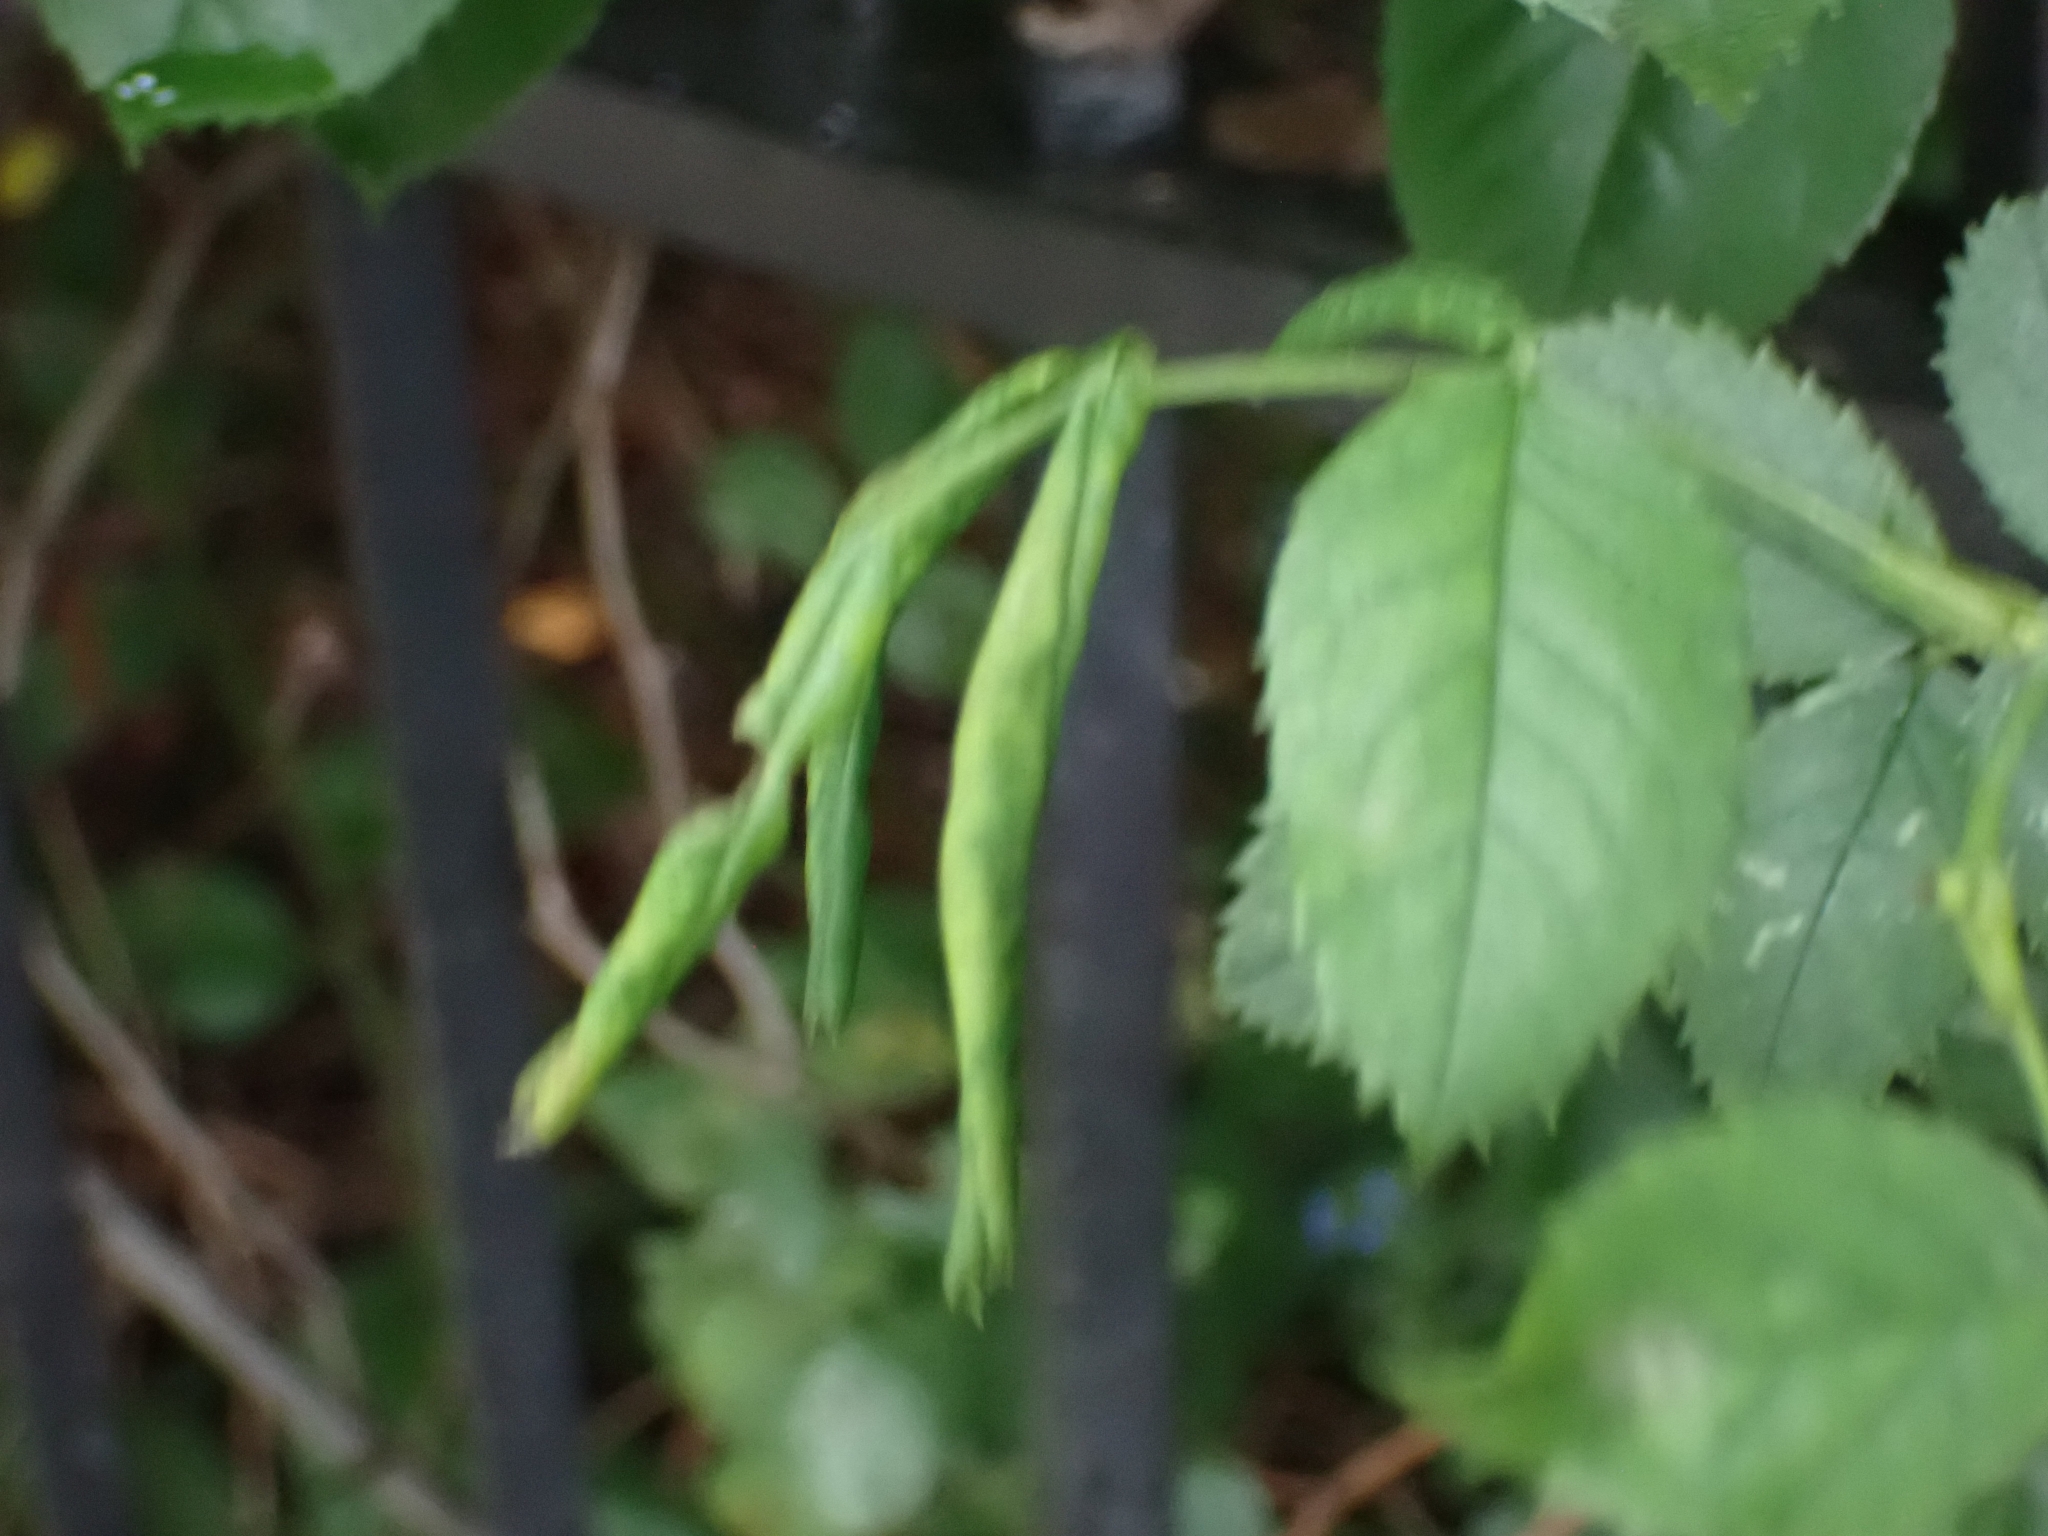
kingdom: Animalia
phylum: Arthropoda
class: Insecta
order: Hymenoptera
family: Tenthredinidae
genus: Blennocampa
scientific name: Blennocampa phyllocolpa
